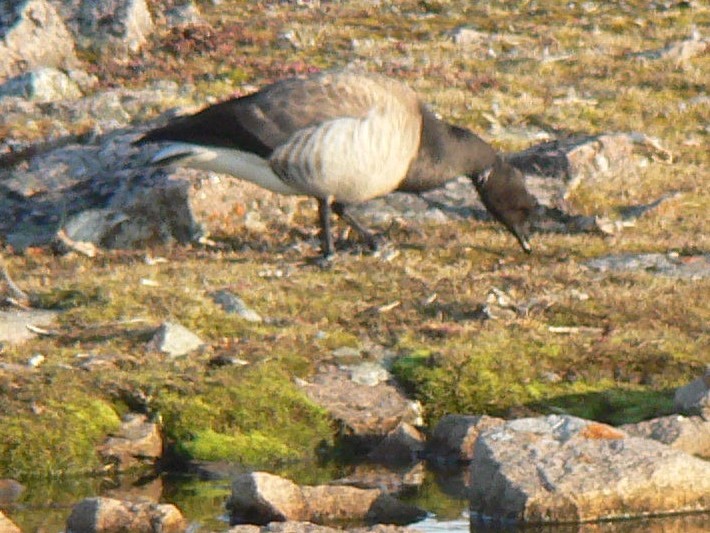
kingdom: Animalia
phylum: Chordata
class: Aves
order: Anseriformes
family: Anatidae
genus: Branta
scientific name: Branta bernicla
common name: Brant goose
